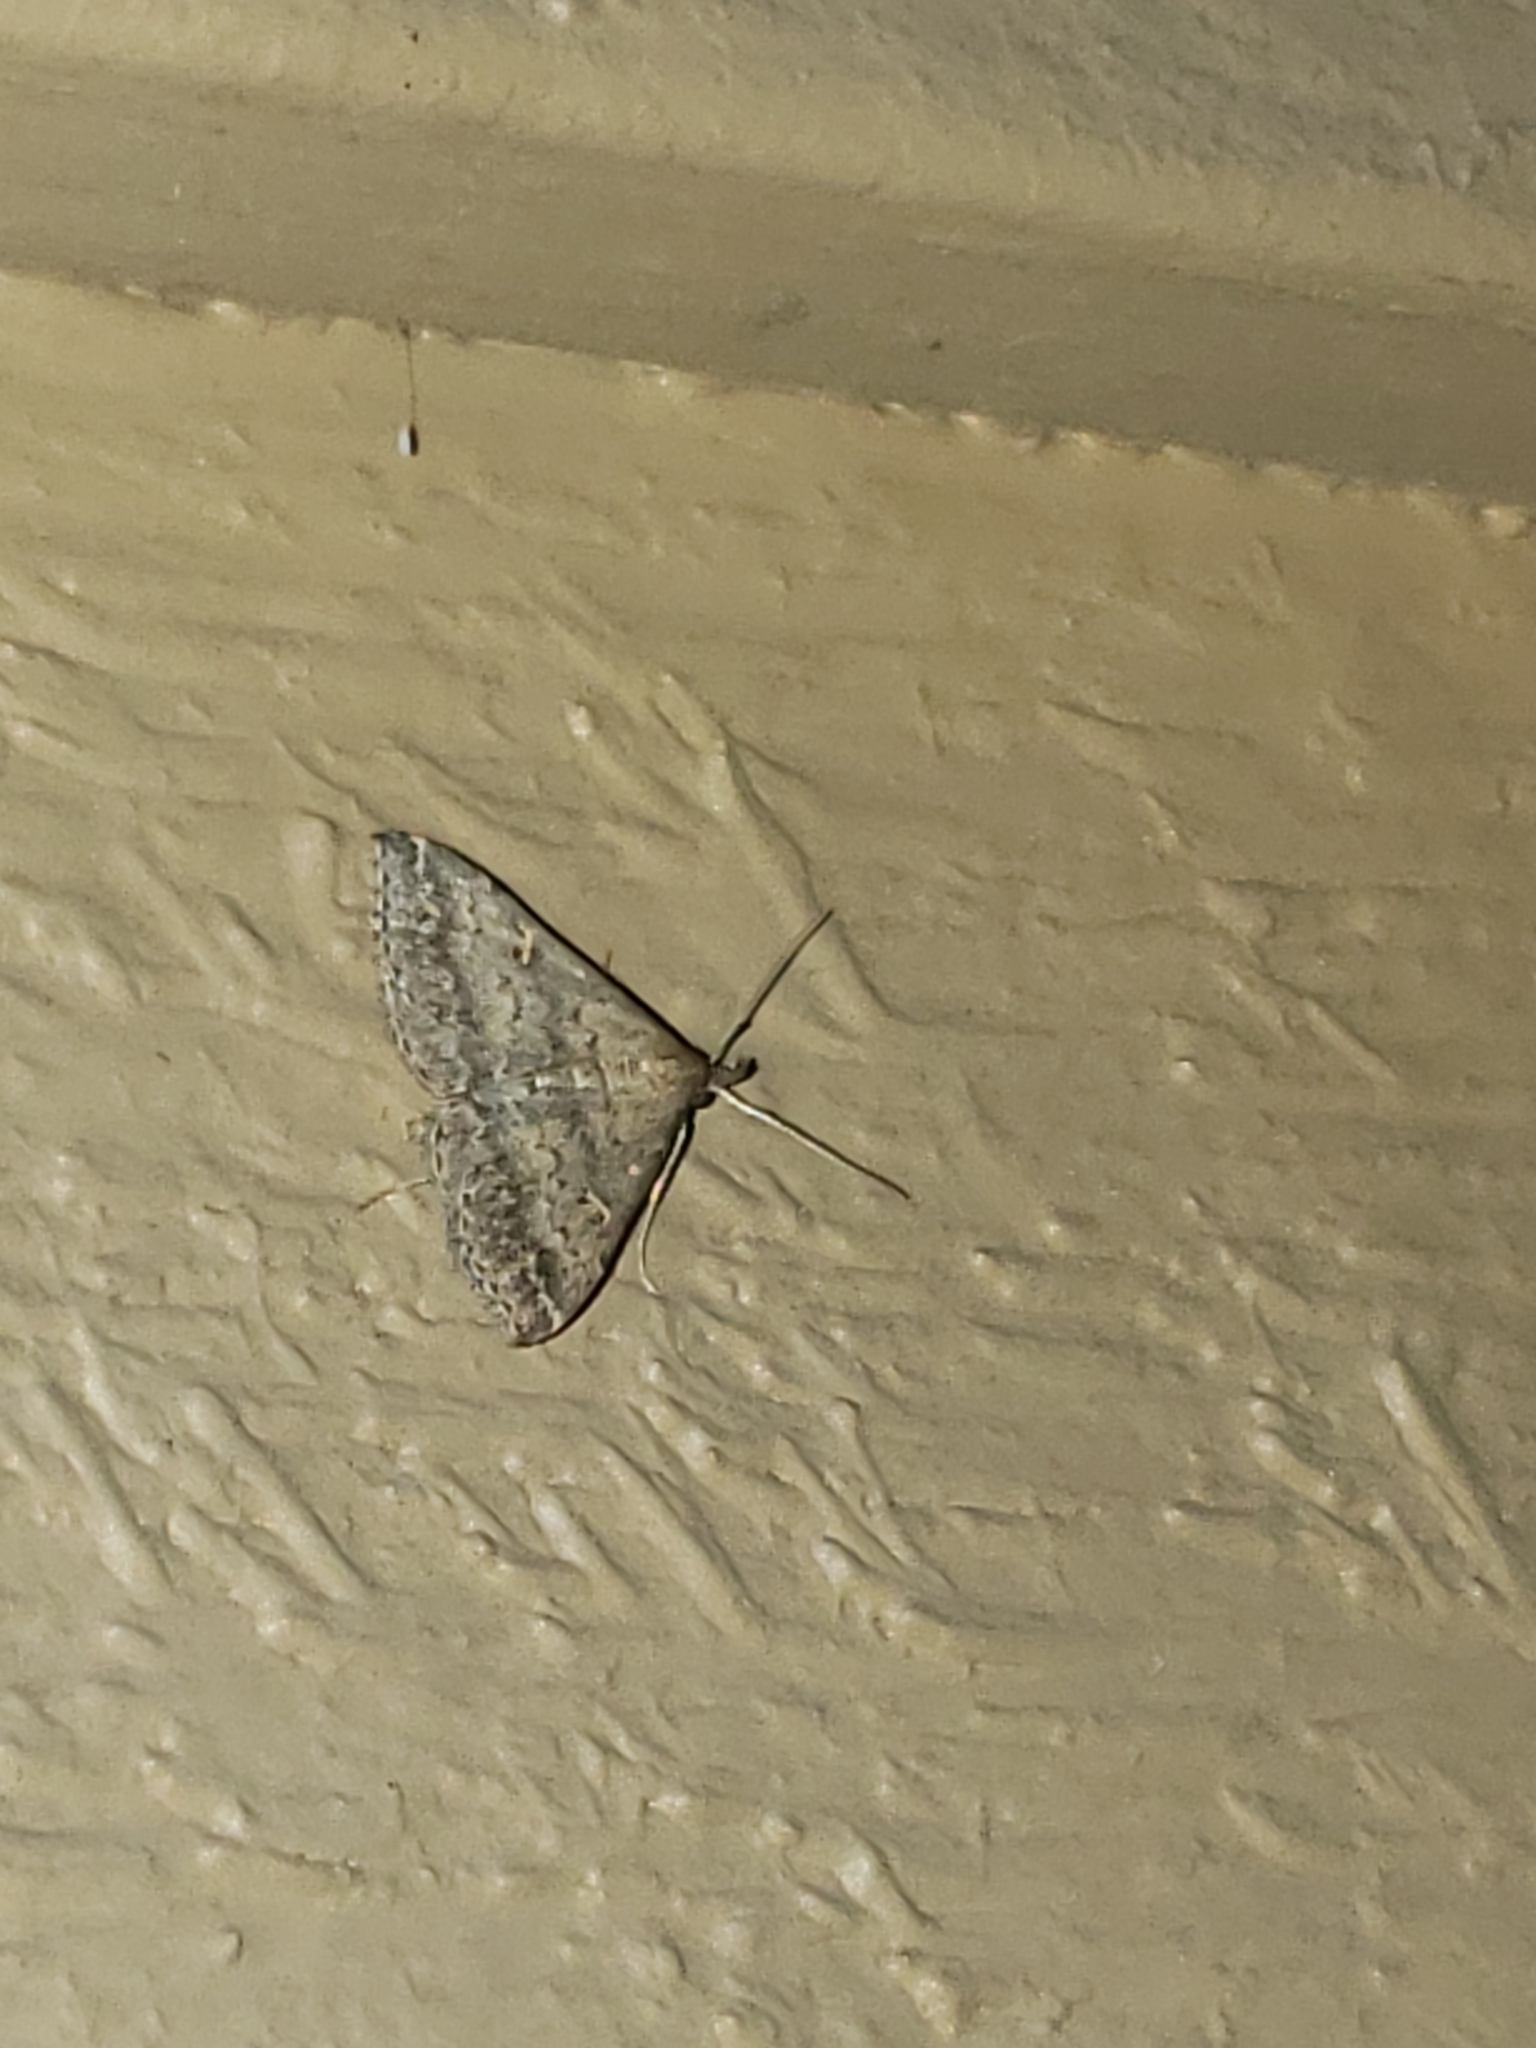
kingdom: Animalia
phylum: Arthropoda
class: Insecta
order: Lepidoptera
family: Erebidae
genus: Tetanolita
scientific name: Tetanolita floridana
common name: Florida tetanolita moth
